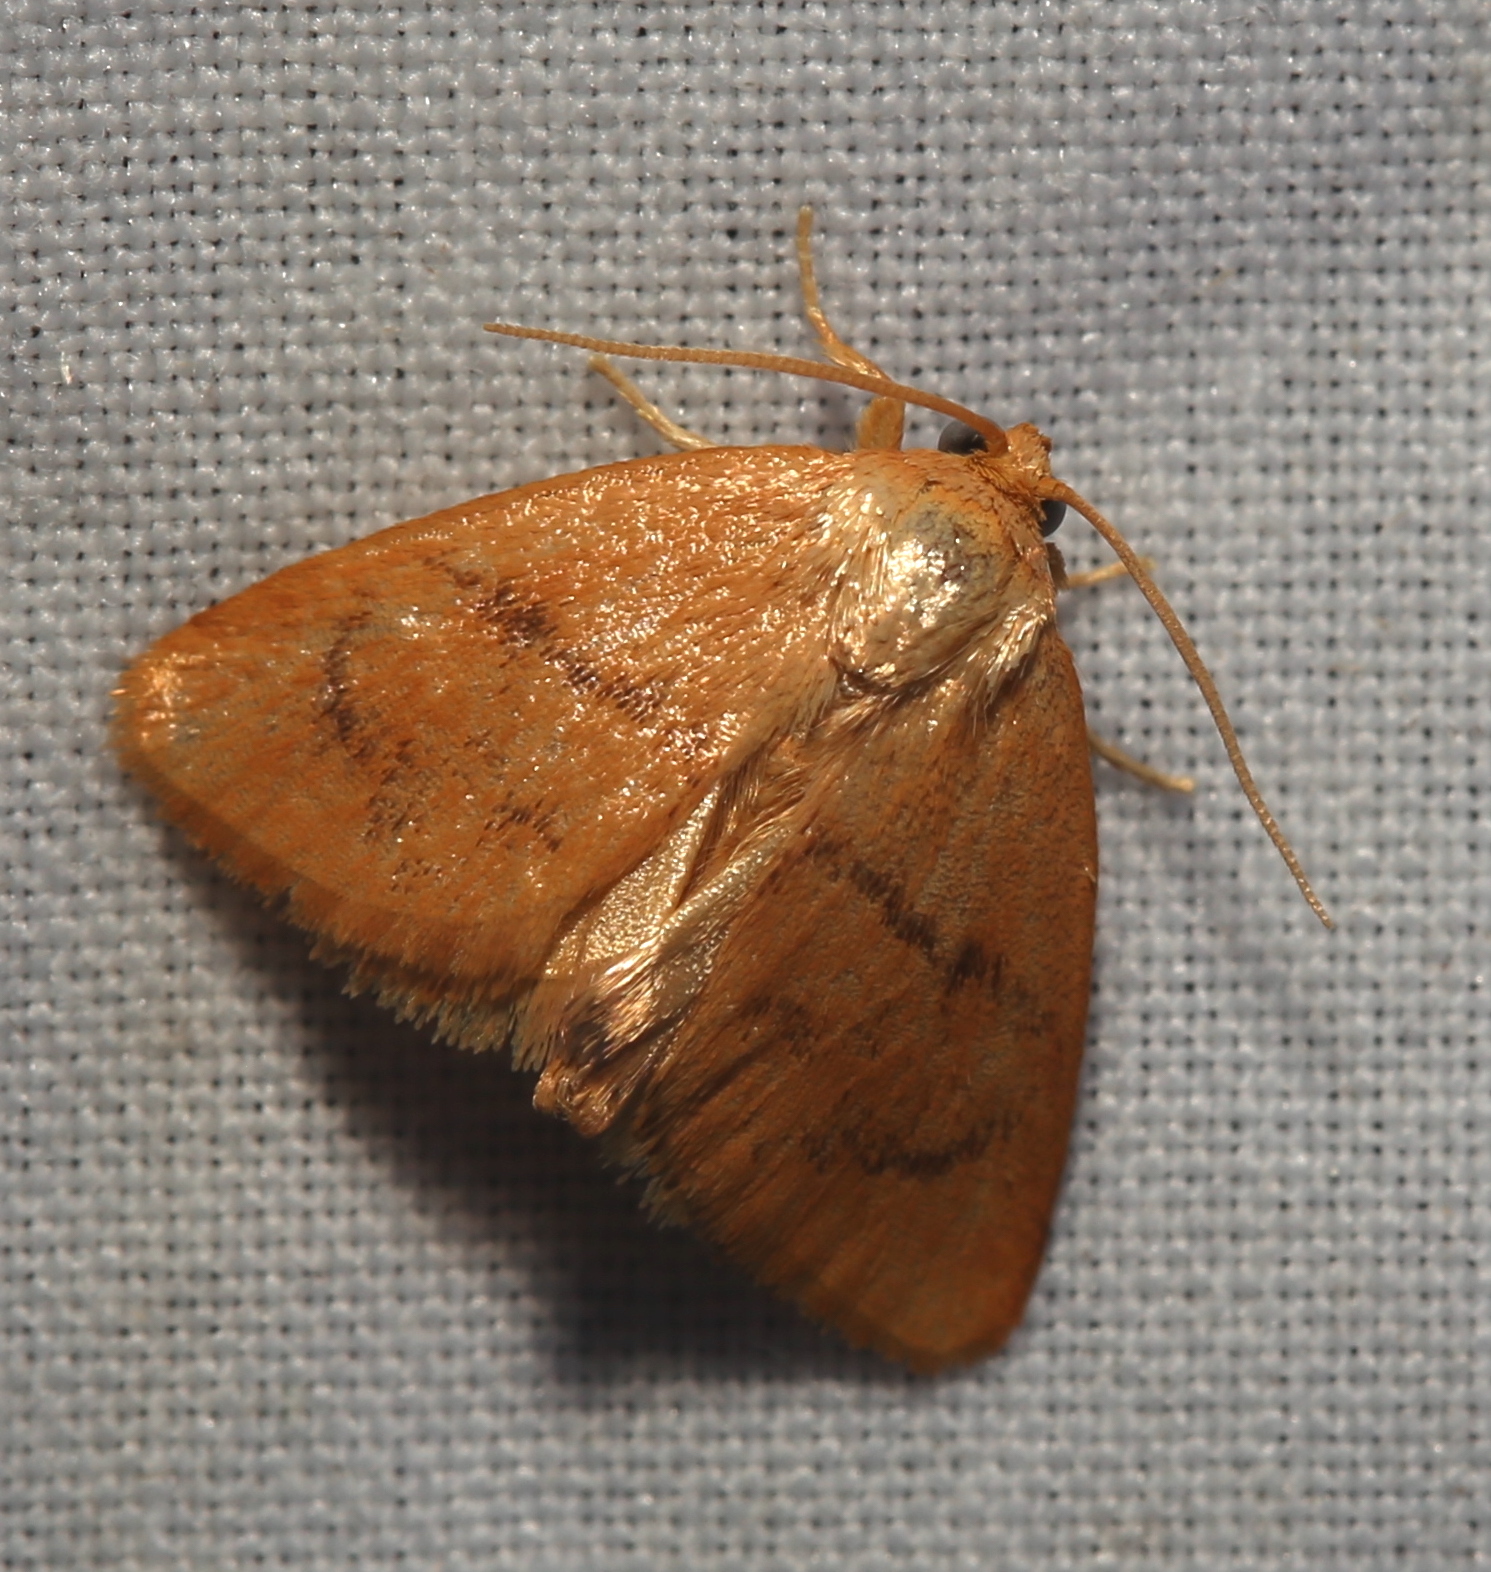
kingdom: Animalia
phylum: Arthropoda
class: Insecta
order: Lepidoptera
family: Limacodidae
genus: Tortricidia
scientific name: Tortricidia flexuosa
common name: Abbreviated button slug moth
